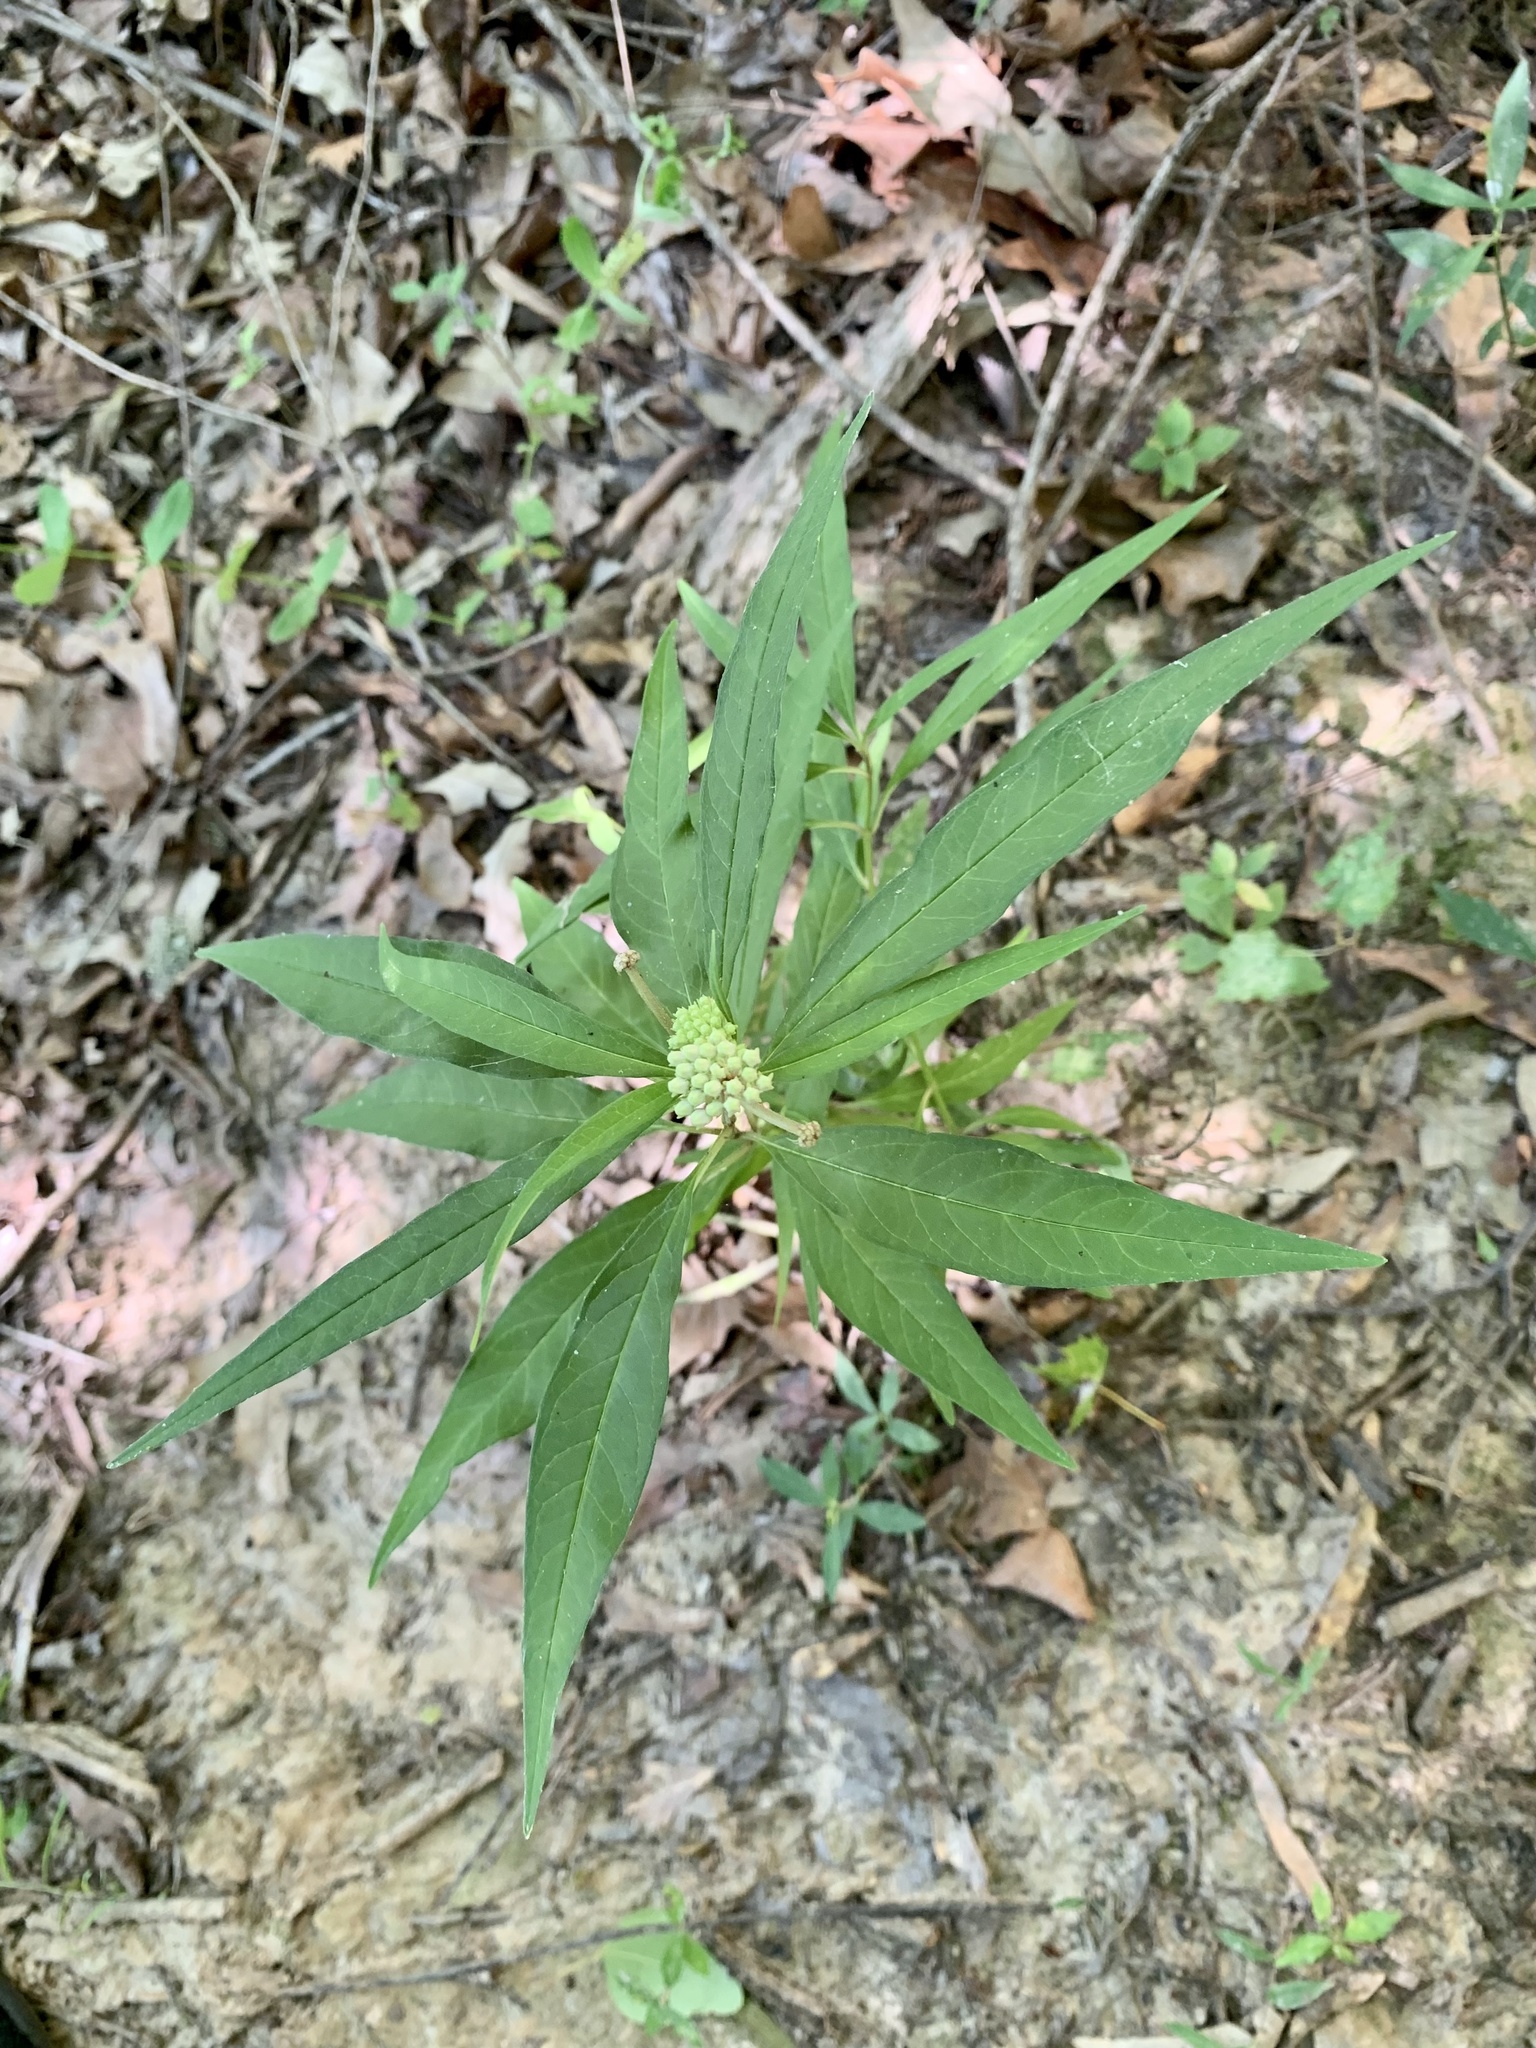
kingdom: Plantae
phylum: Tracheophyta
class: Magnoliopsida
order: Gentianales
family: Apocynaceae
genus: Asclepias
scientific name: Asclepias perennis
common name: Smooth-seed milkweed
